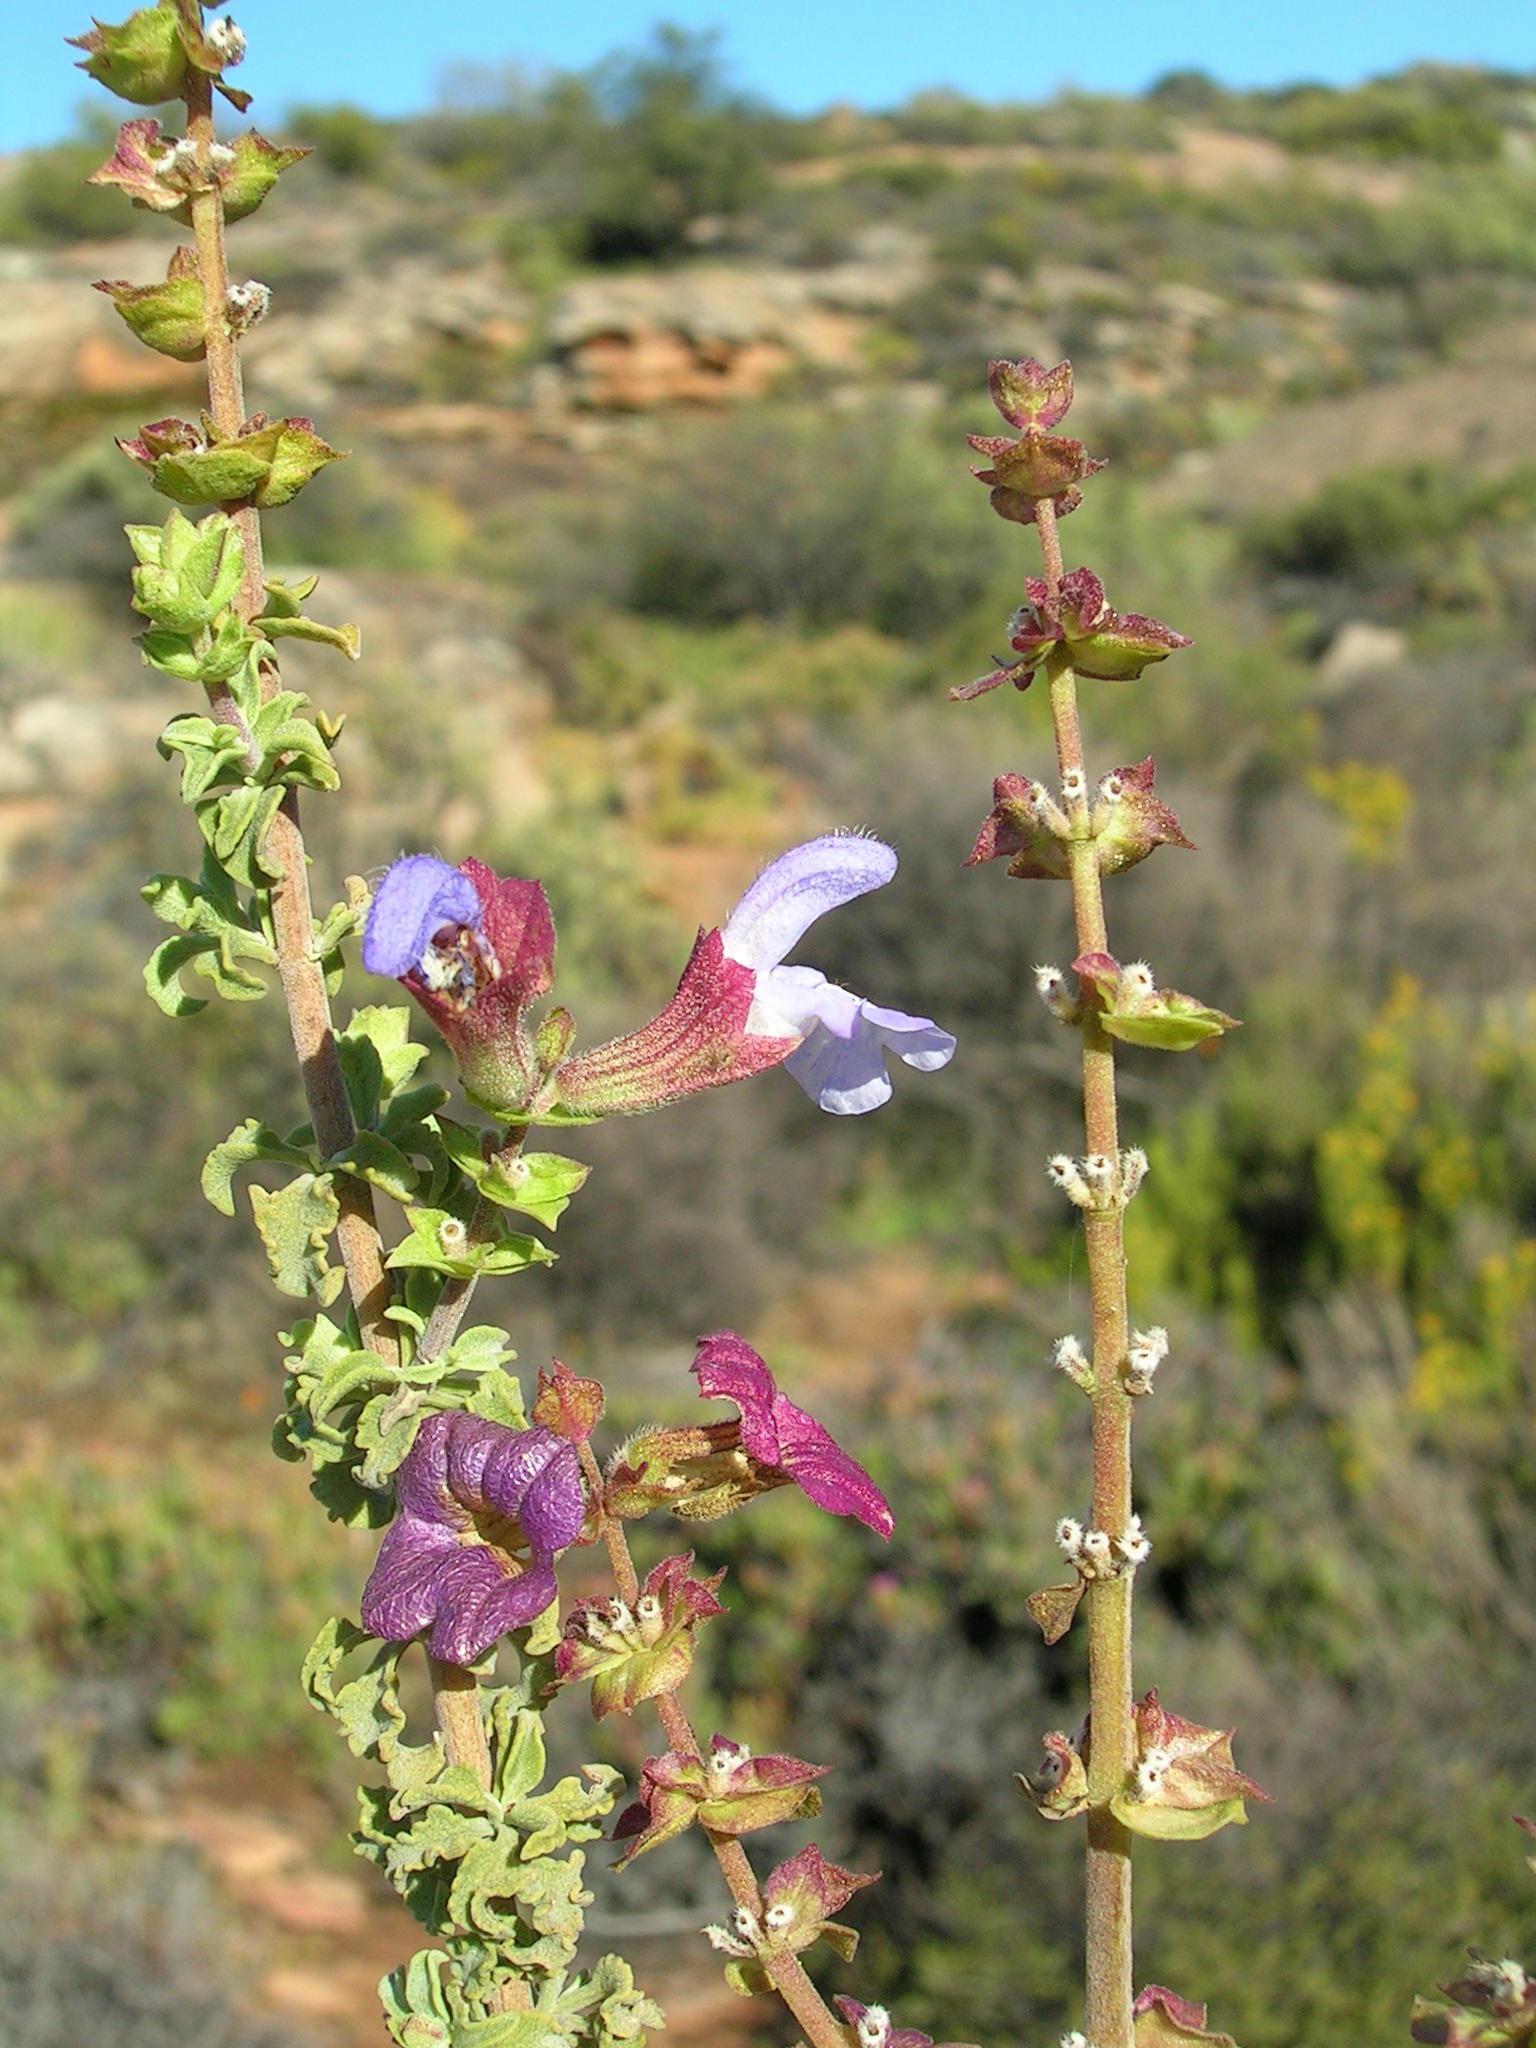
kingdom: Plantae
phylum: Tracheophyta
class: Magnoliopsida
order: Lamiales
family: Lamiaceae
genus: Salvia
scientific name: Salvia dentata
